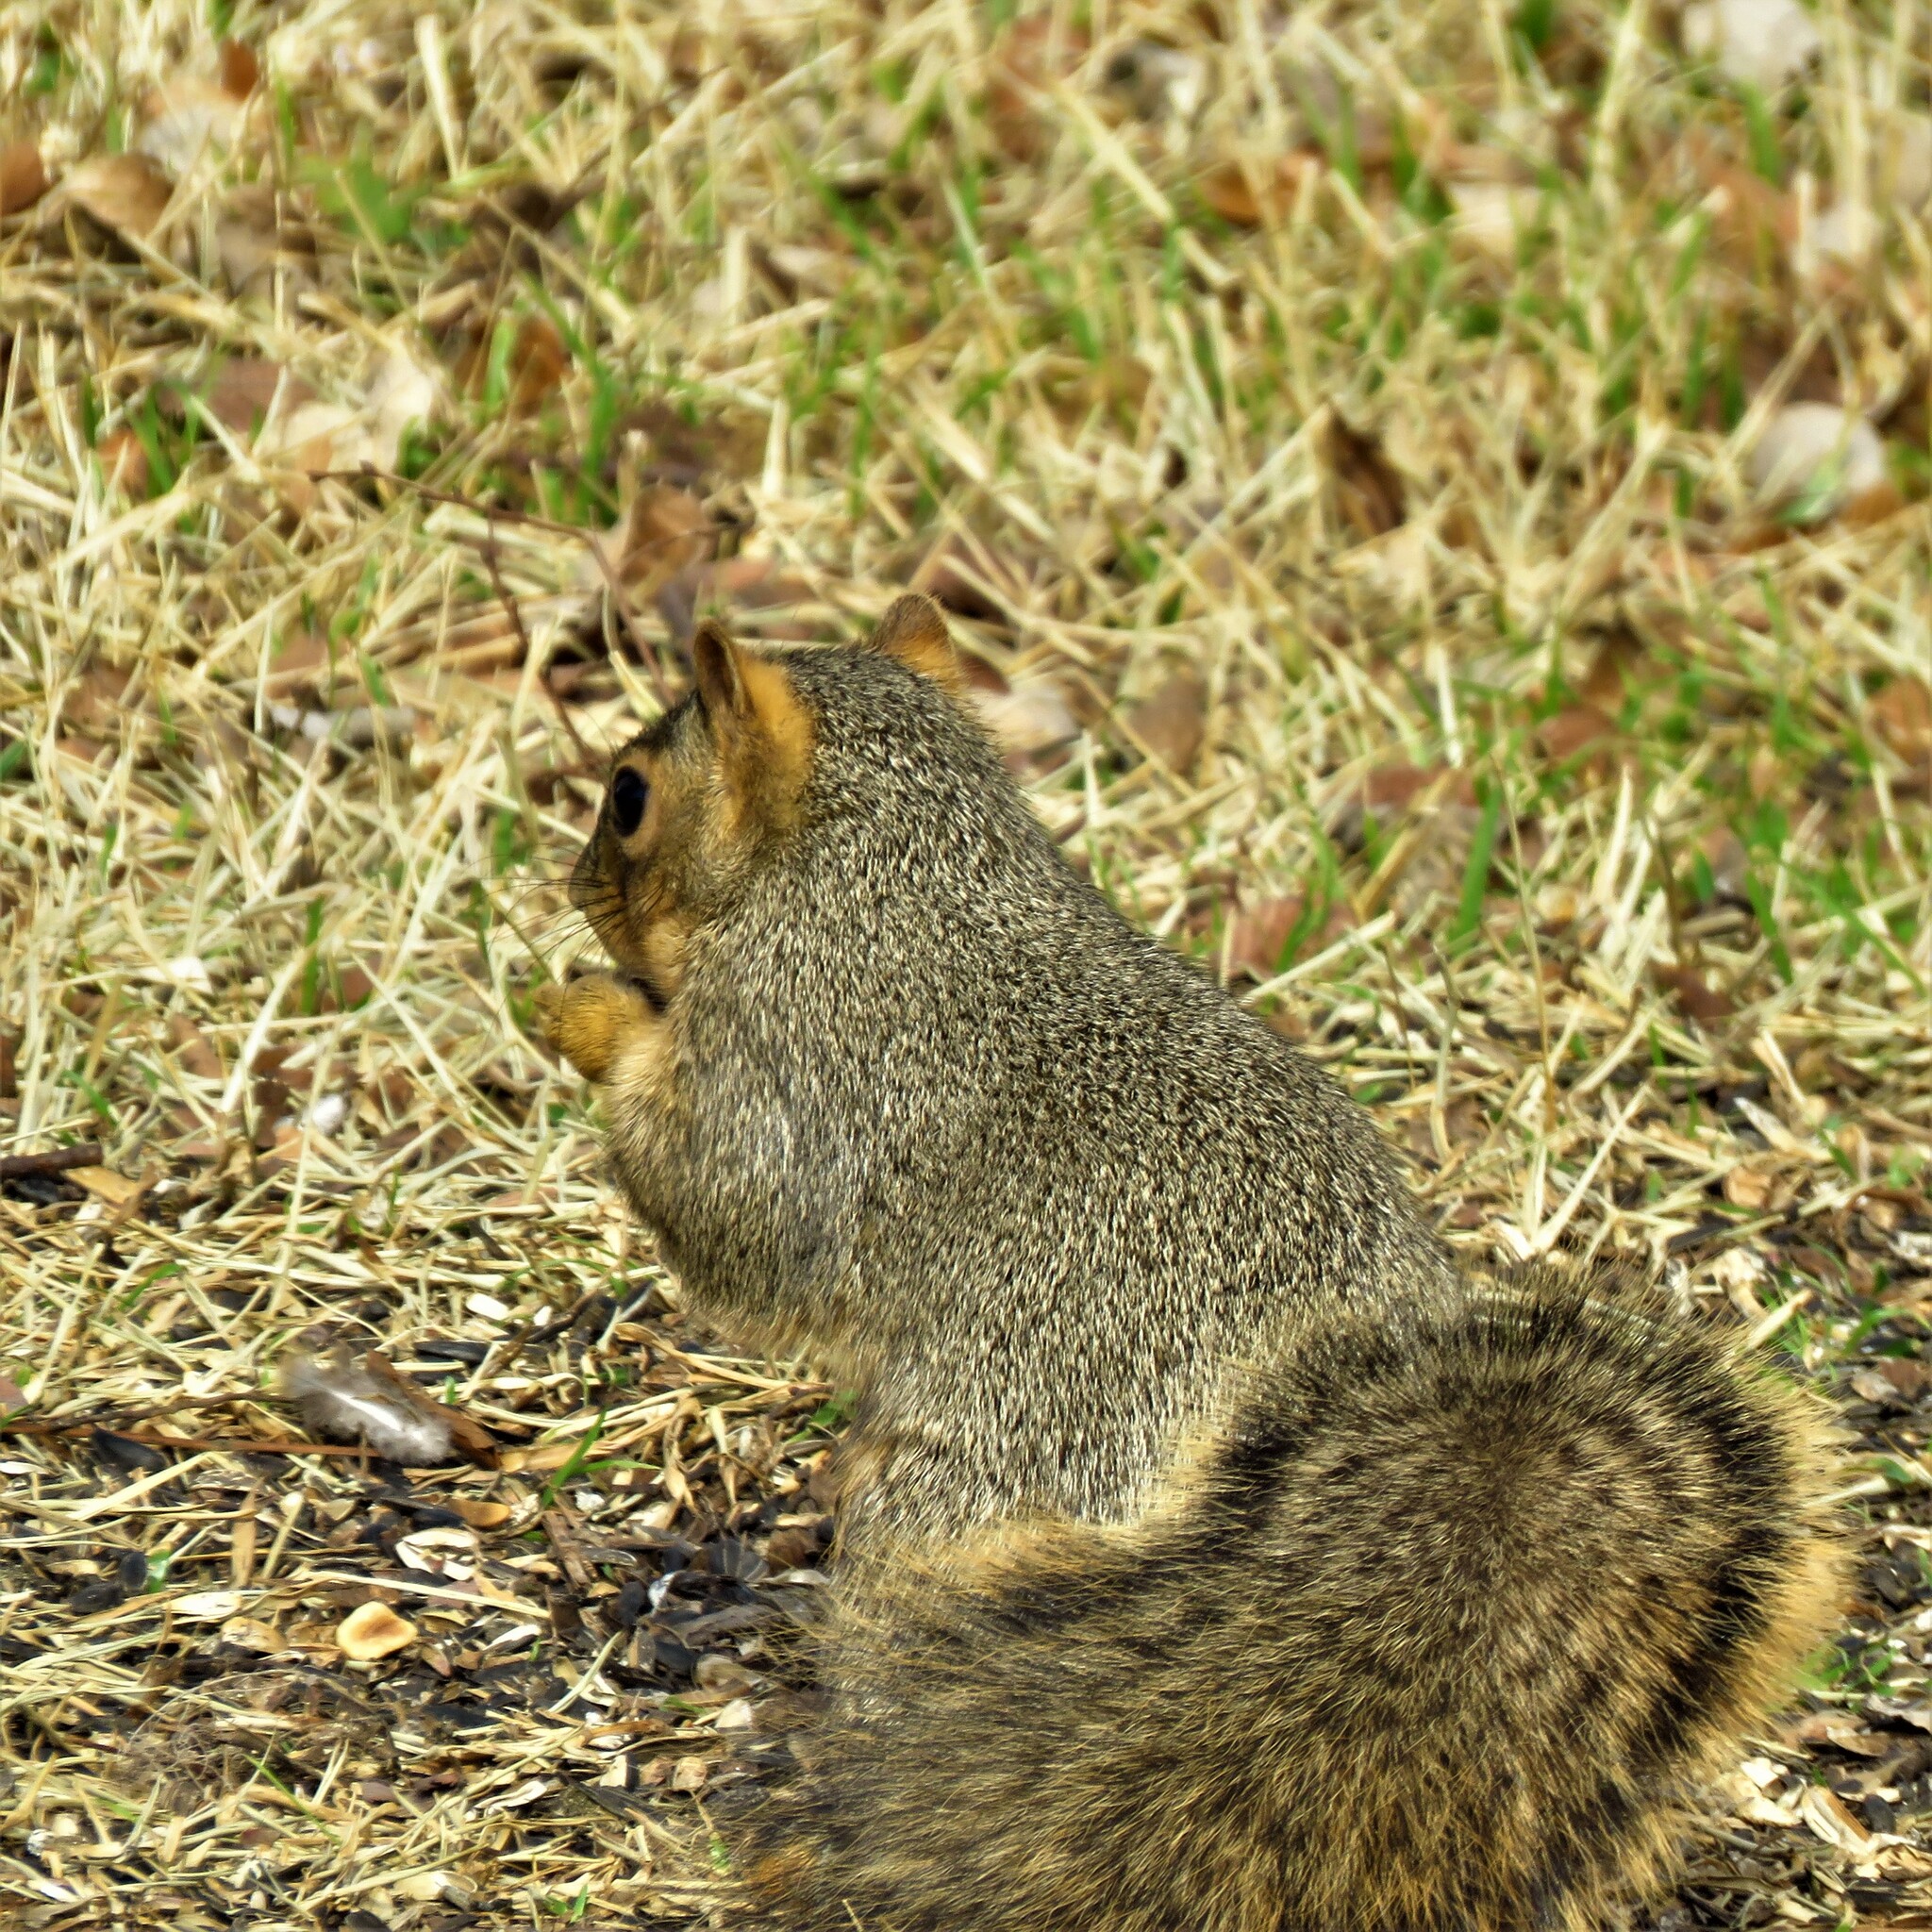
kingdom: Animalia
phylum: Chordata
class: Mammalia
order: Rodentia
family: Sciuridae
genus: Sciurus
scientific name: Sciurus niger
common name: Fox squirrel
